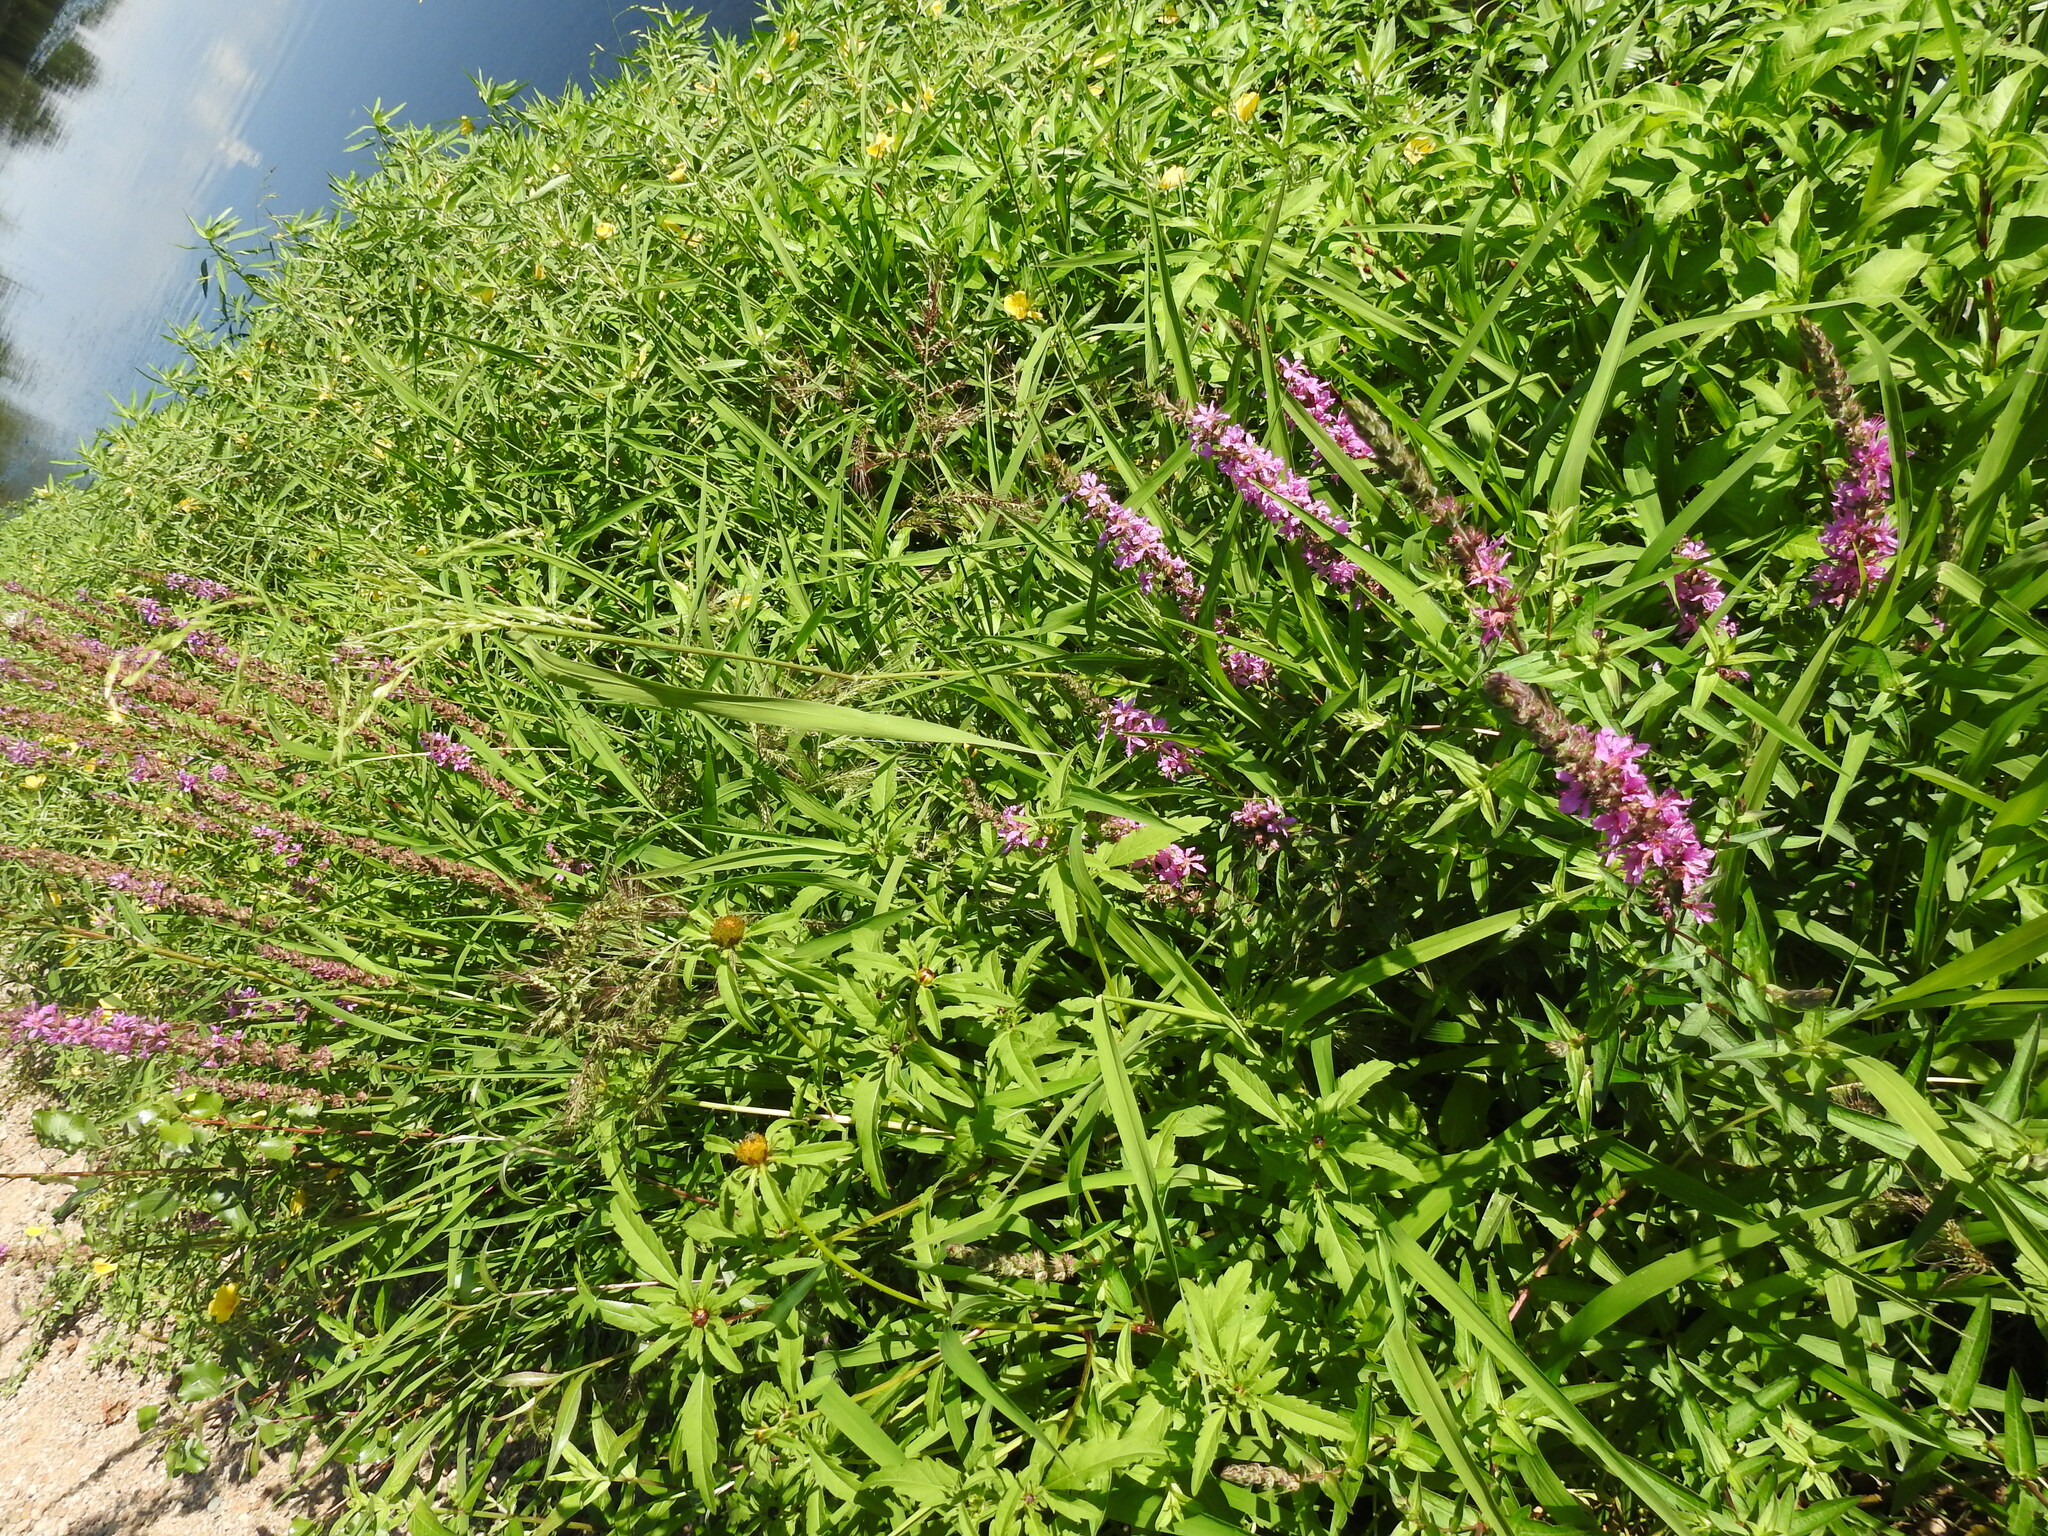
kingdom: Plantae
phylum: Tracheophyta
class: Liliopsida
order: Poales
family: Poaceae
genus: Leersia
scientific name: Leersia oryzoides
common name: Cut-grass
